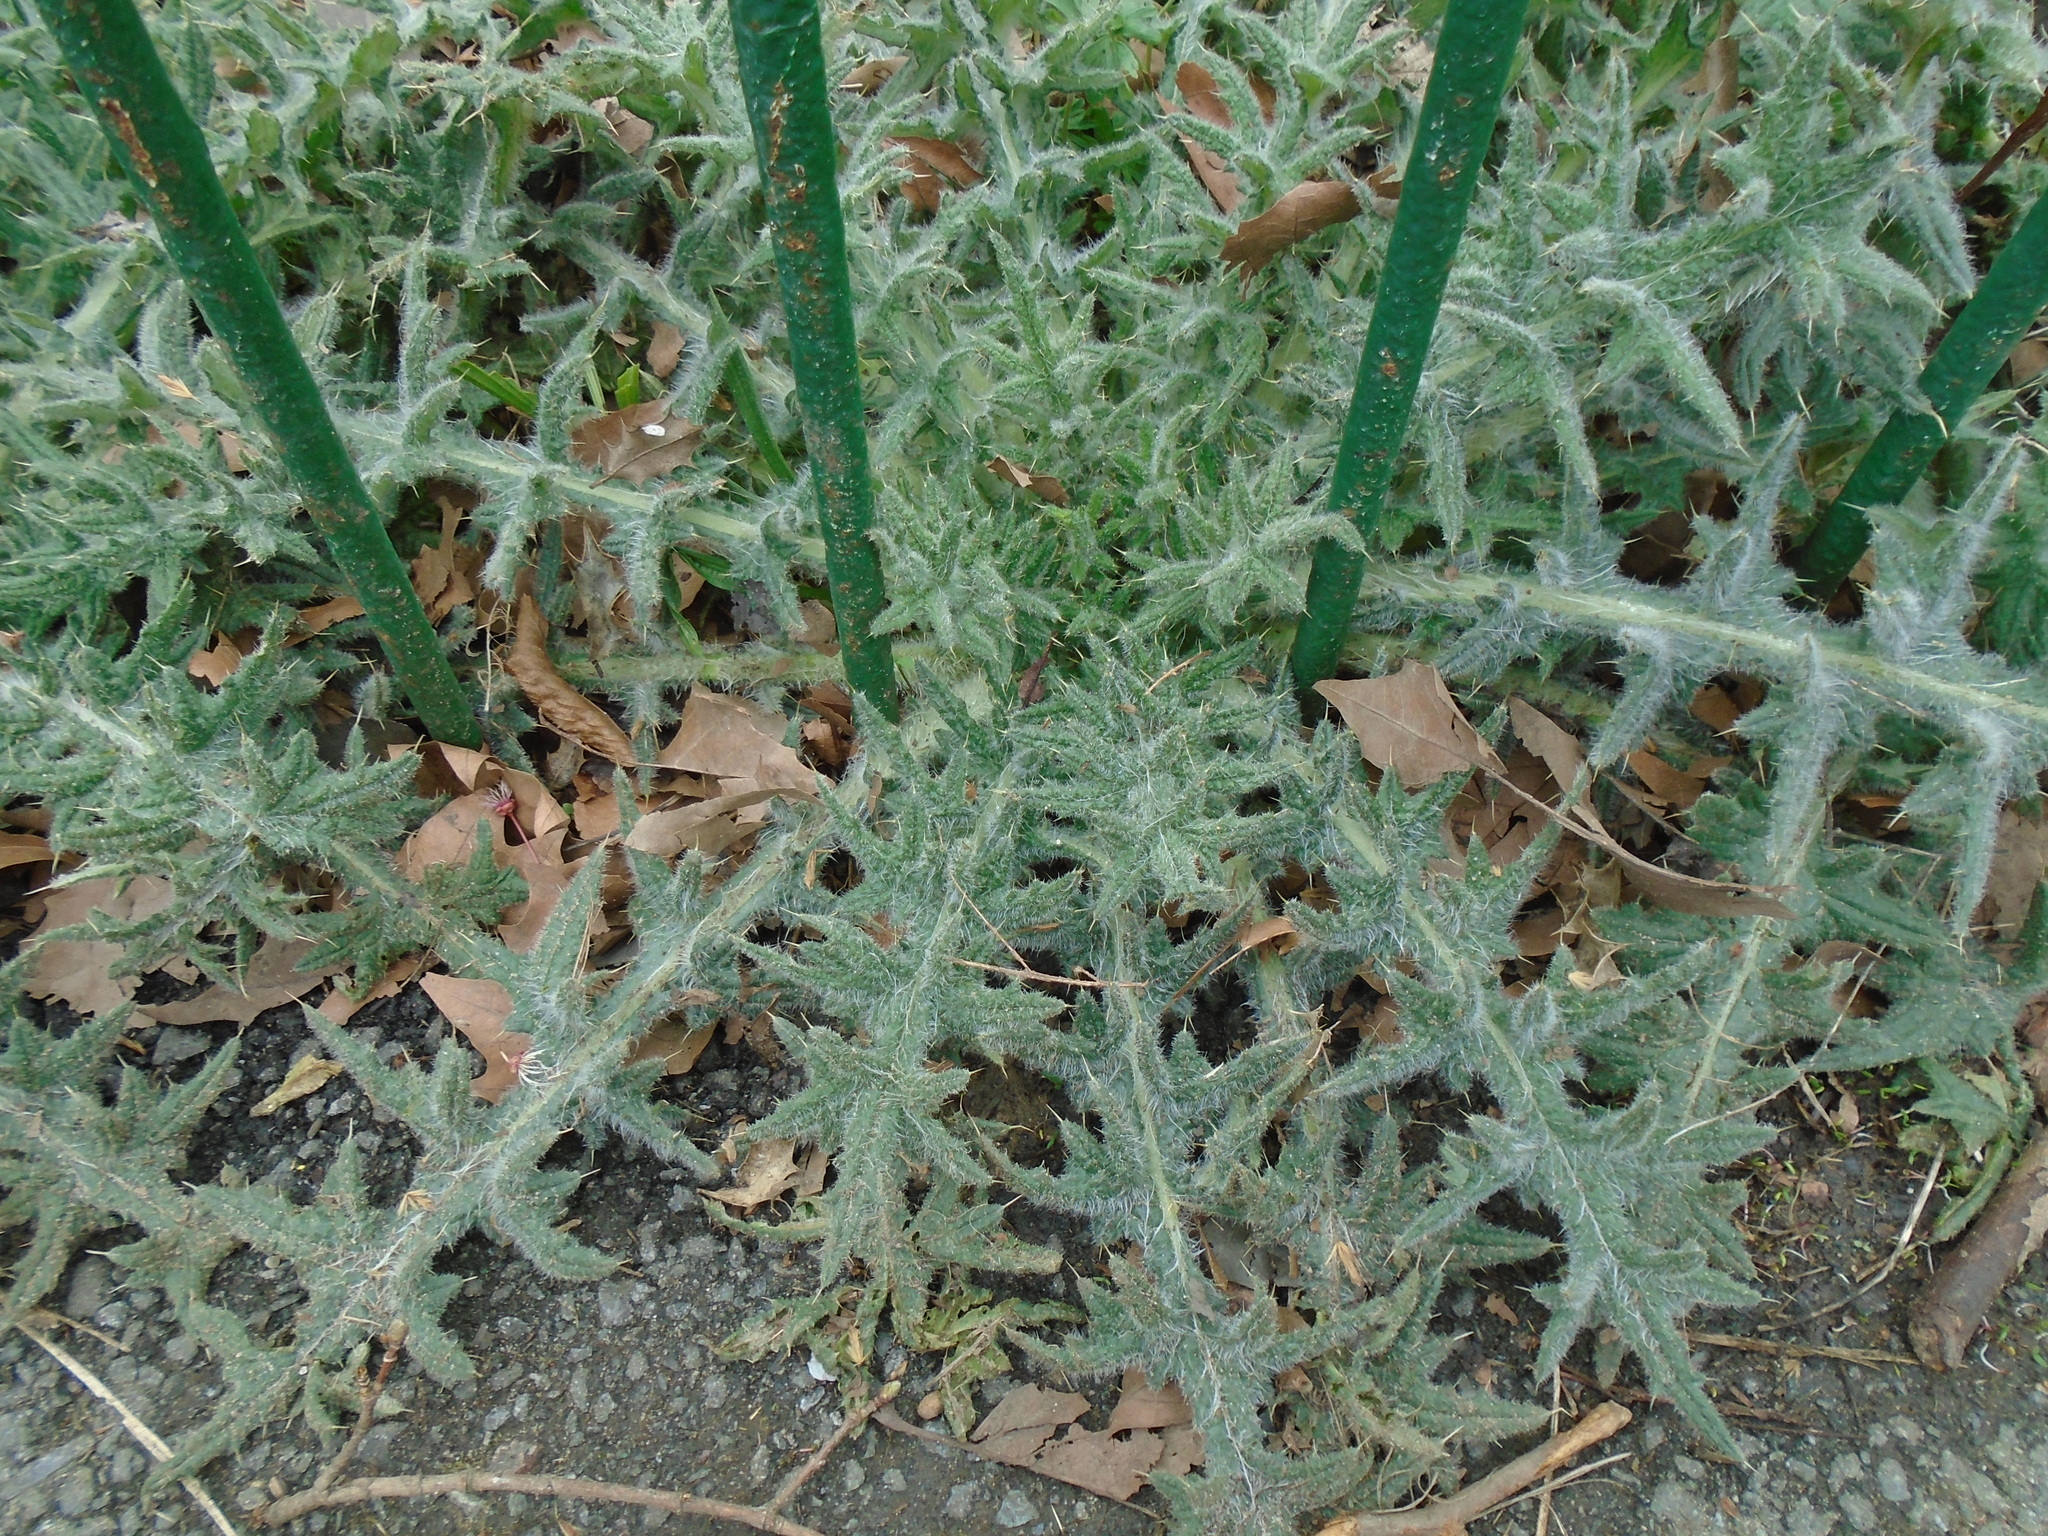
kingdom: Plantae
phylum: Tracheophyta
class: Magnoliopsida
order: Asterales
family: Asteraceae
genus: Cirsium
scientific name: Cirsium vulgare
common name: Bull thistle
